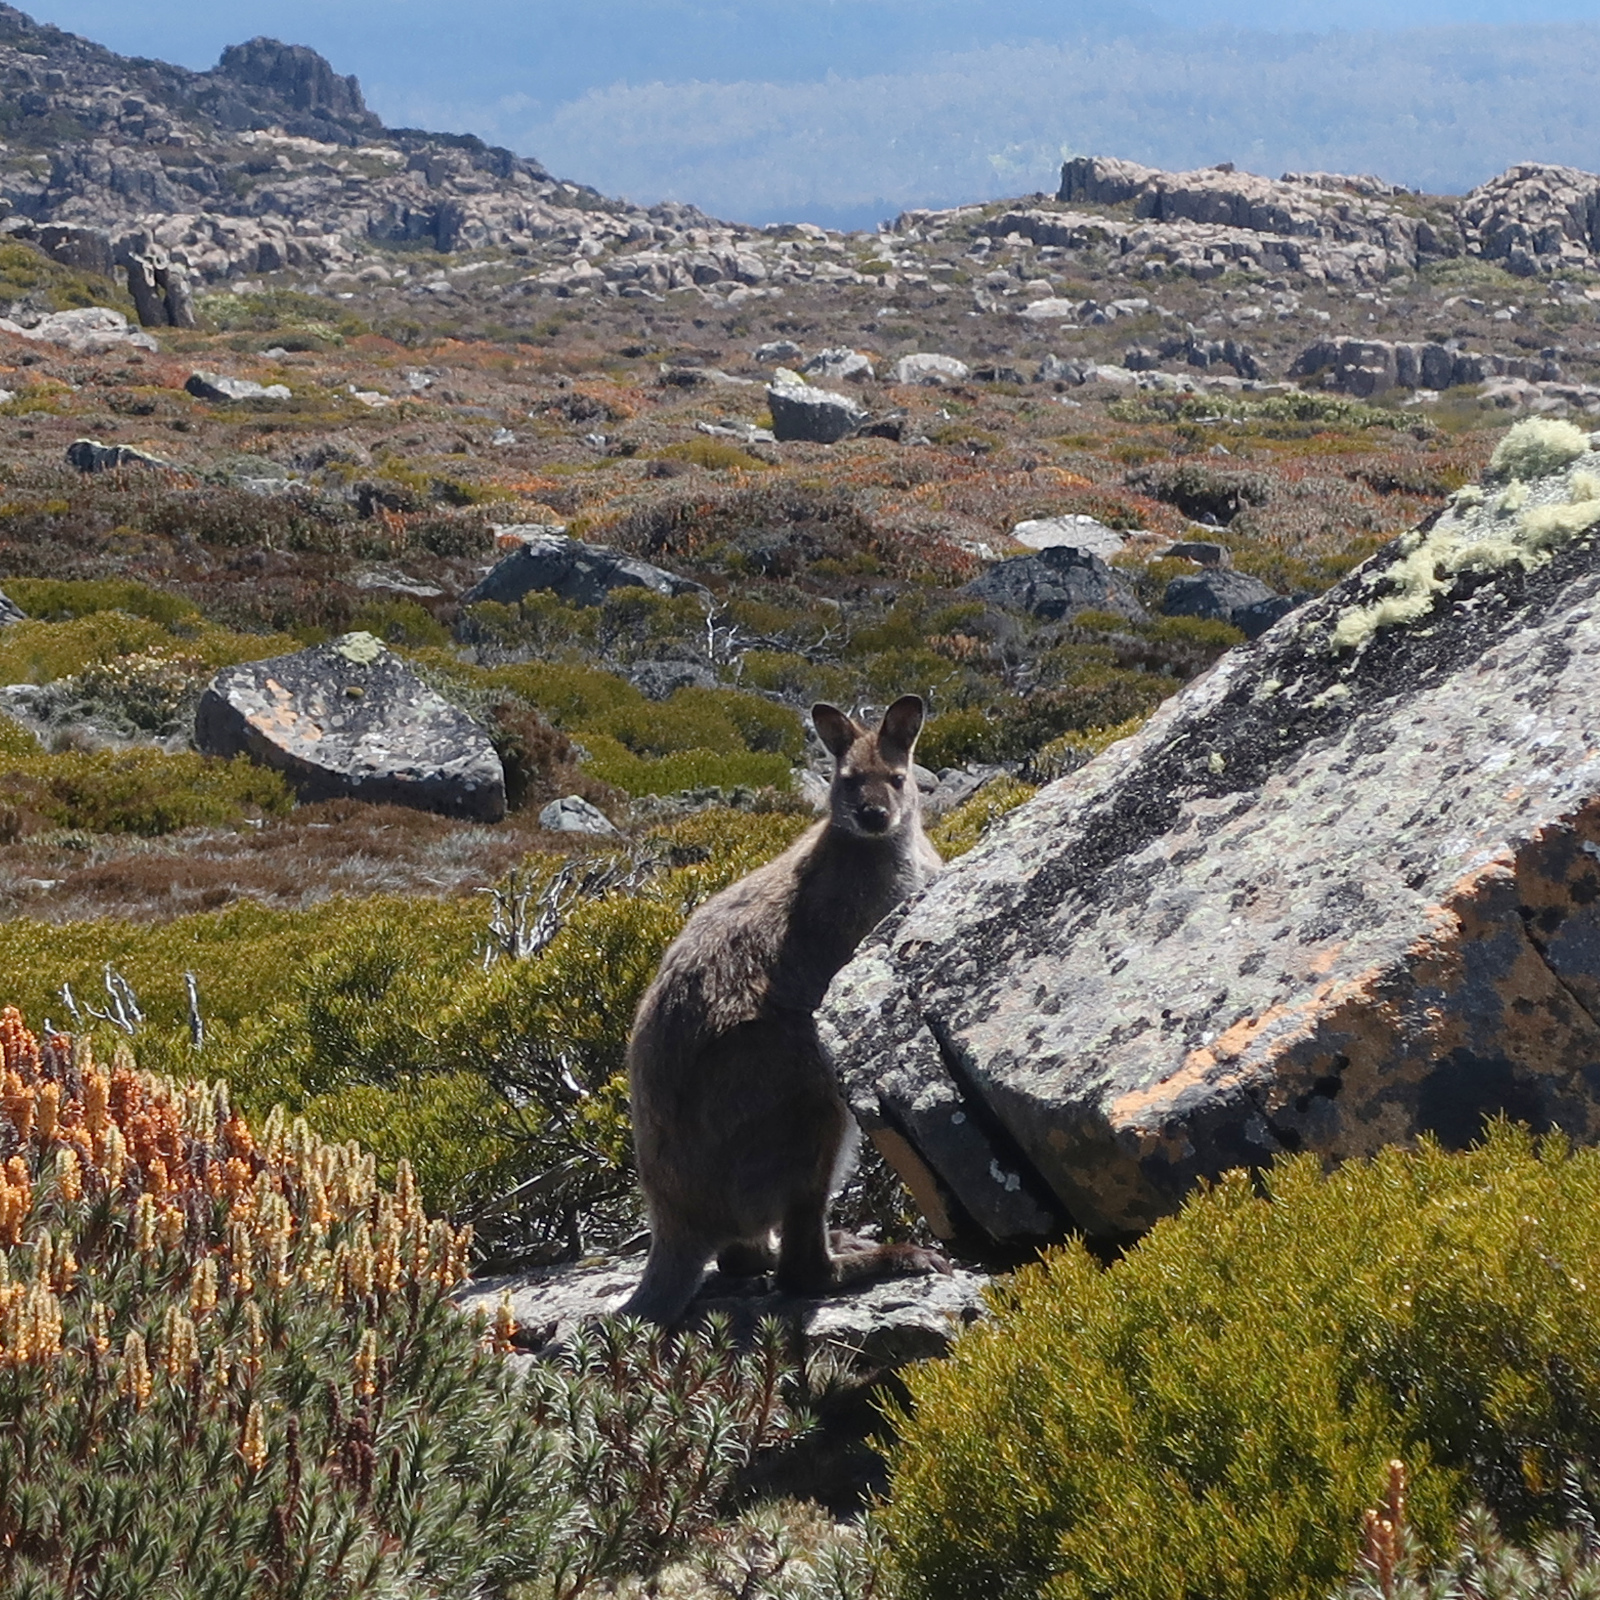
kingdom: Animalia
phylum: Chordata
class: Mammalia
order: Diprotodontia
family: Macropodidae
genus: Notamacropus
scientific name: Notamacropus rufogriseus
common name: Red-necked wallaby
